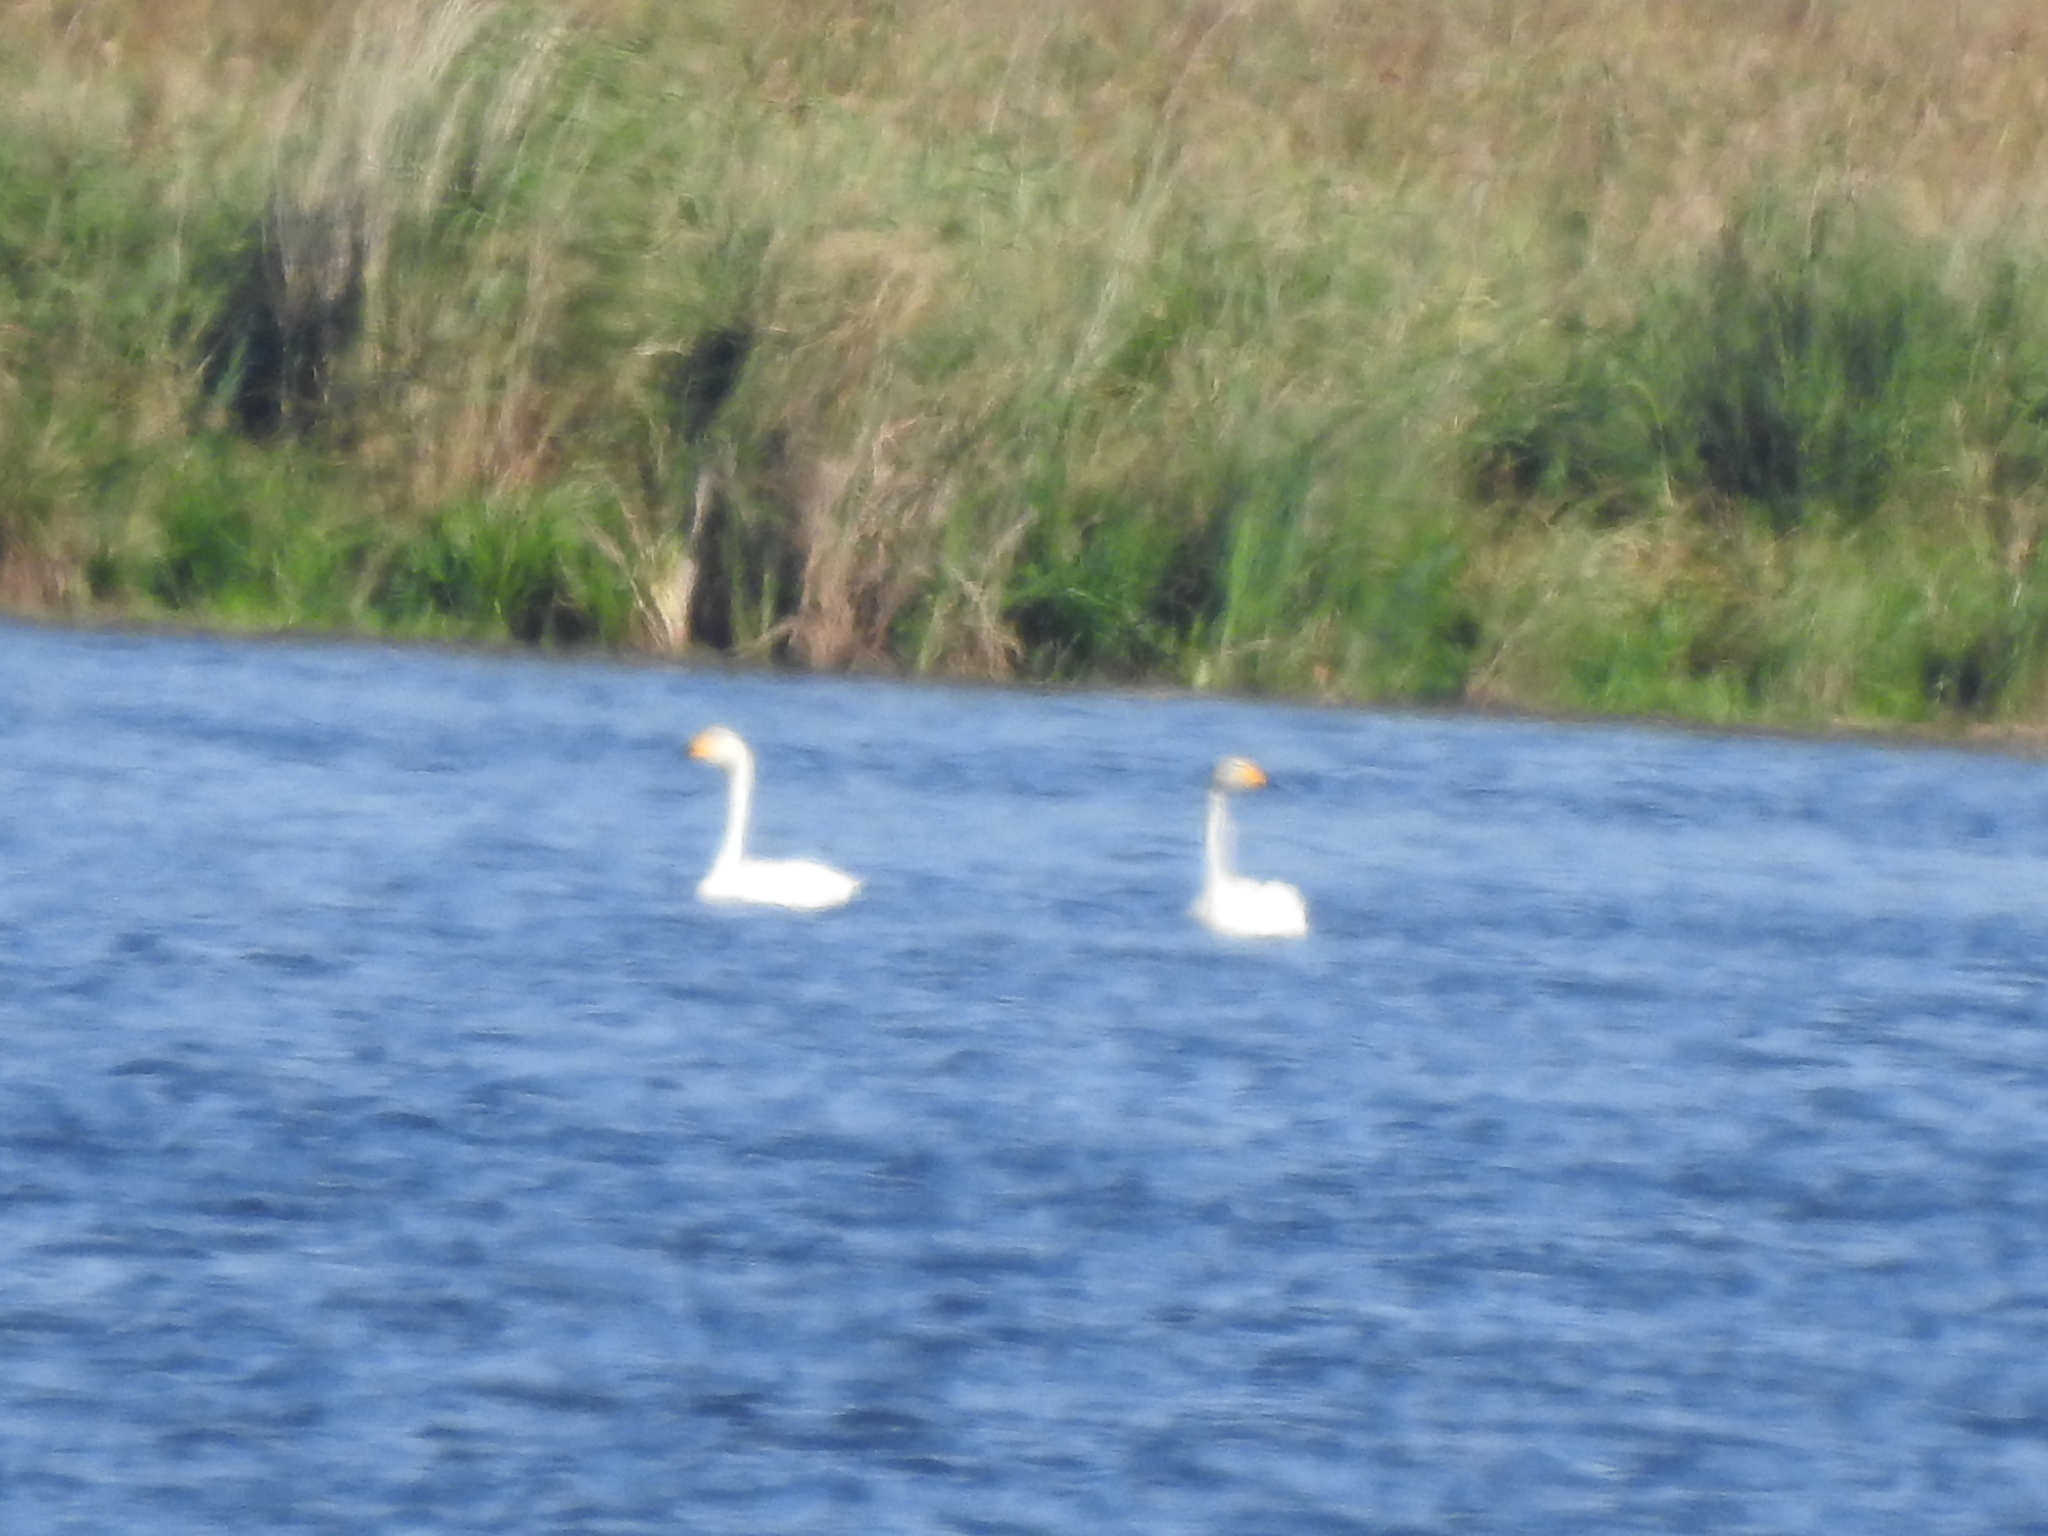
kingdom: Animalia
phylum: Chordata
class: Aves
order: Anseriformes
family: Anatidae
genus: Cygnus
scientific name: Cygnus cygnus
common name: Whooper swan
